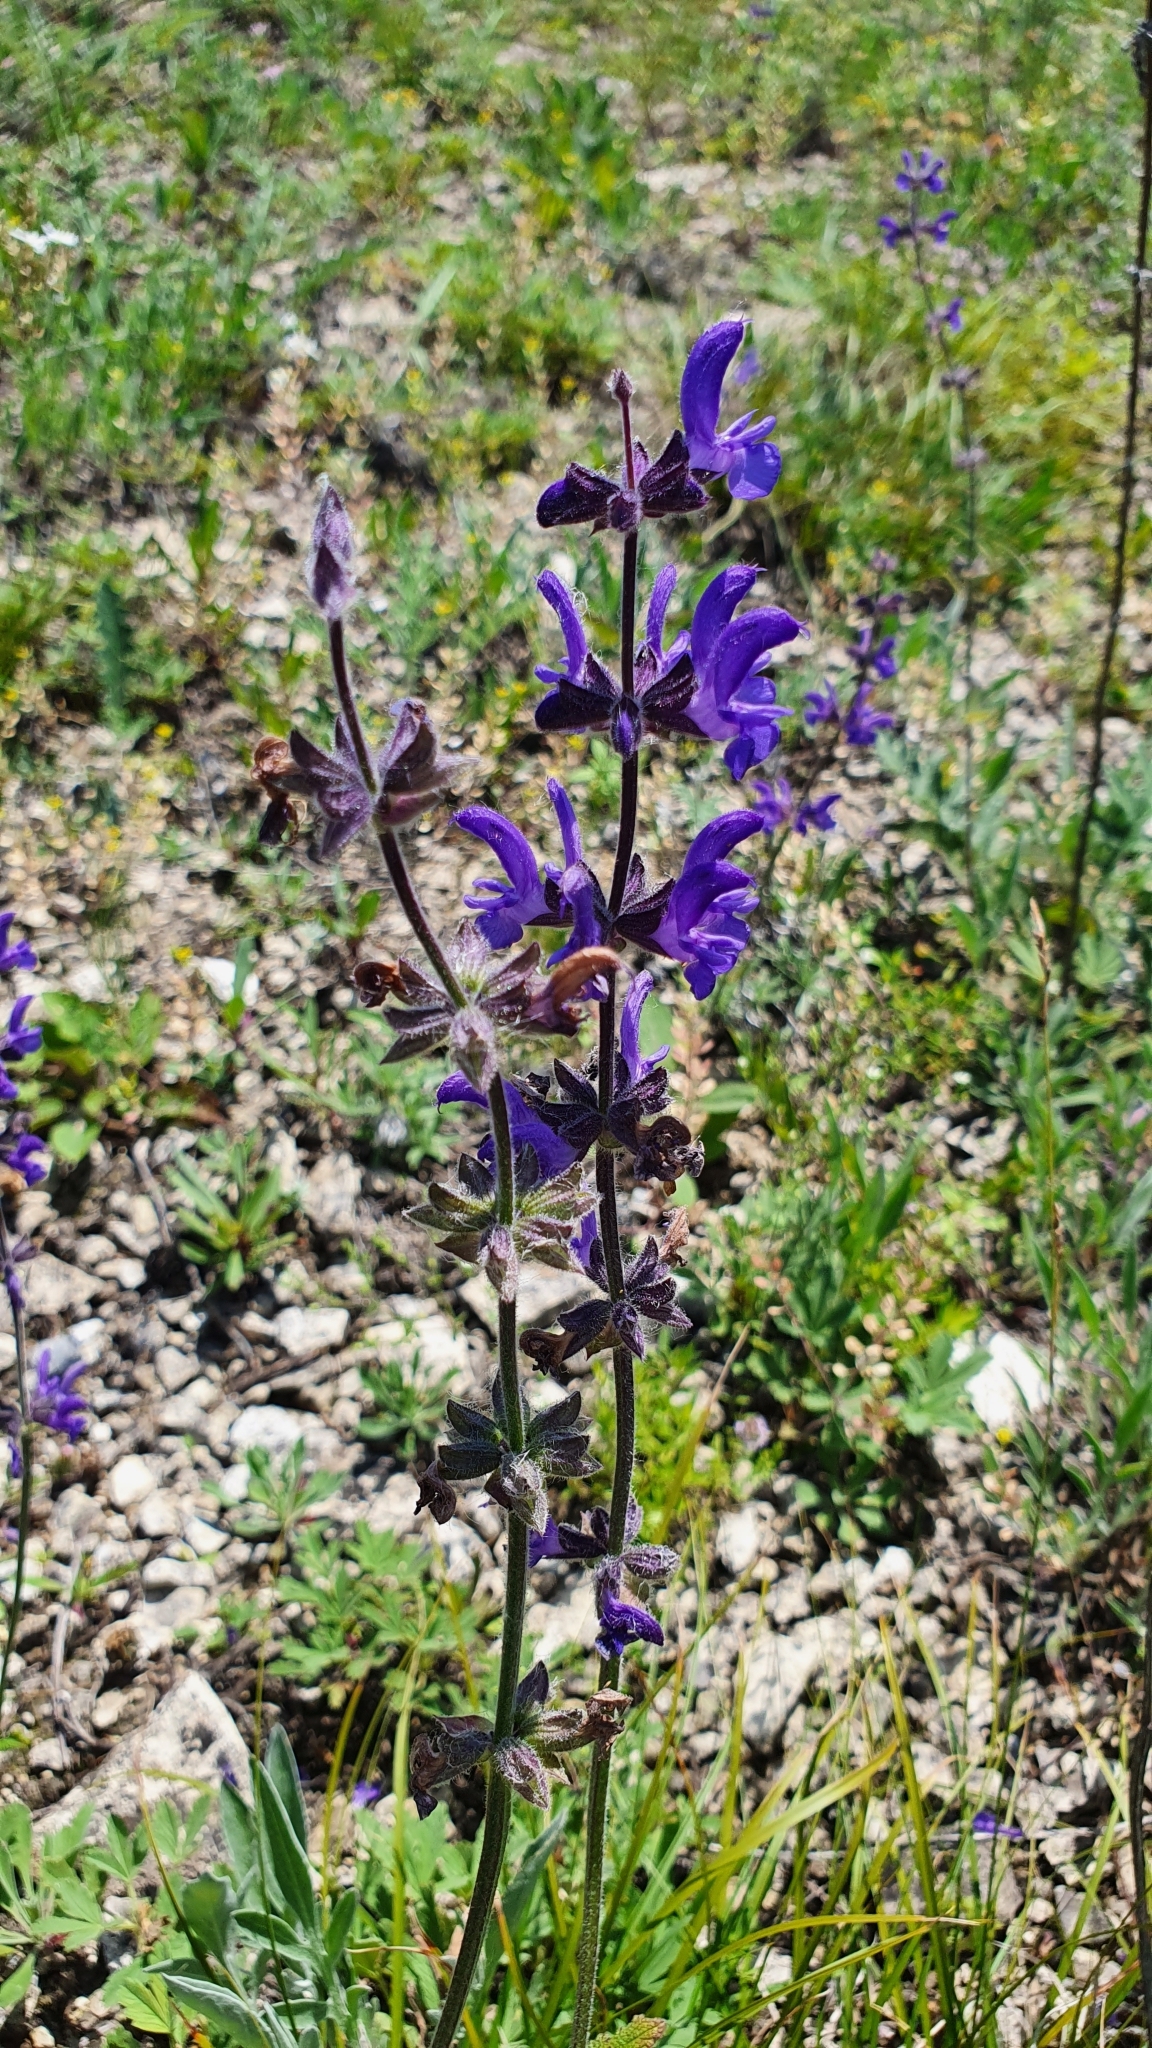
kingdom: Plantae
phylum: Tracheophyta
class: Magnoliopsida
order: Lamiales
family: Lamiaceae
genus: Salvia
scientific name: Salvia dumetorum
